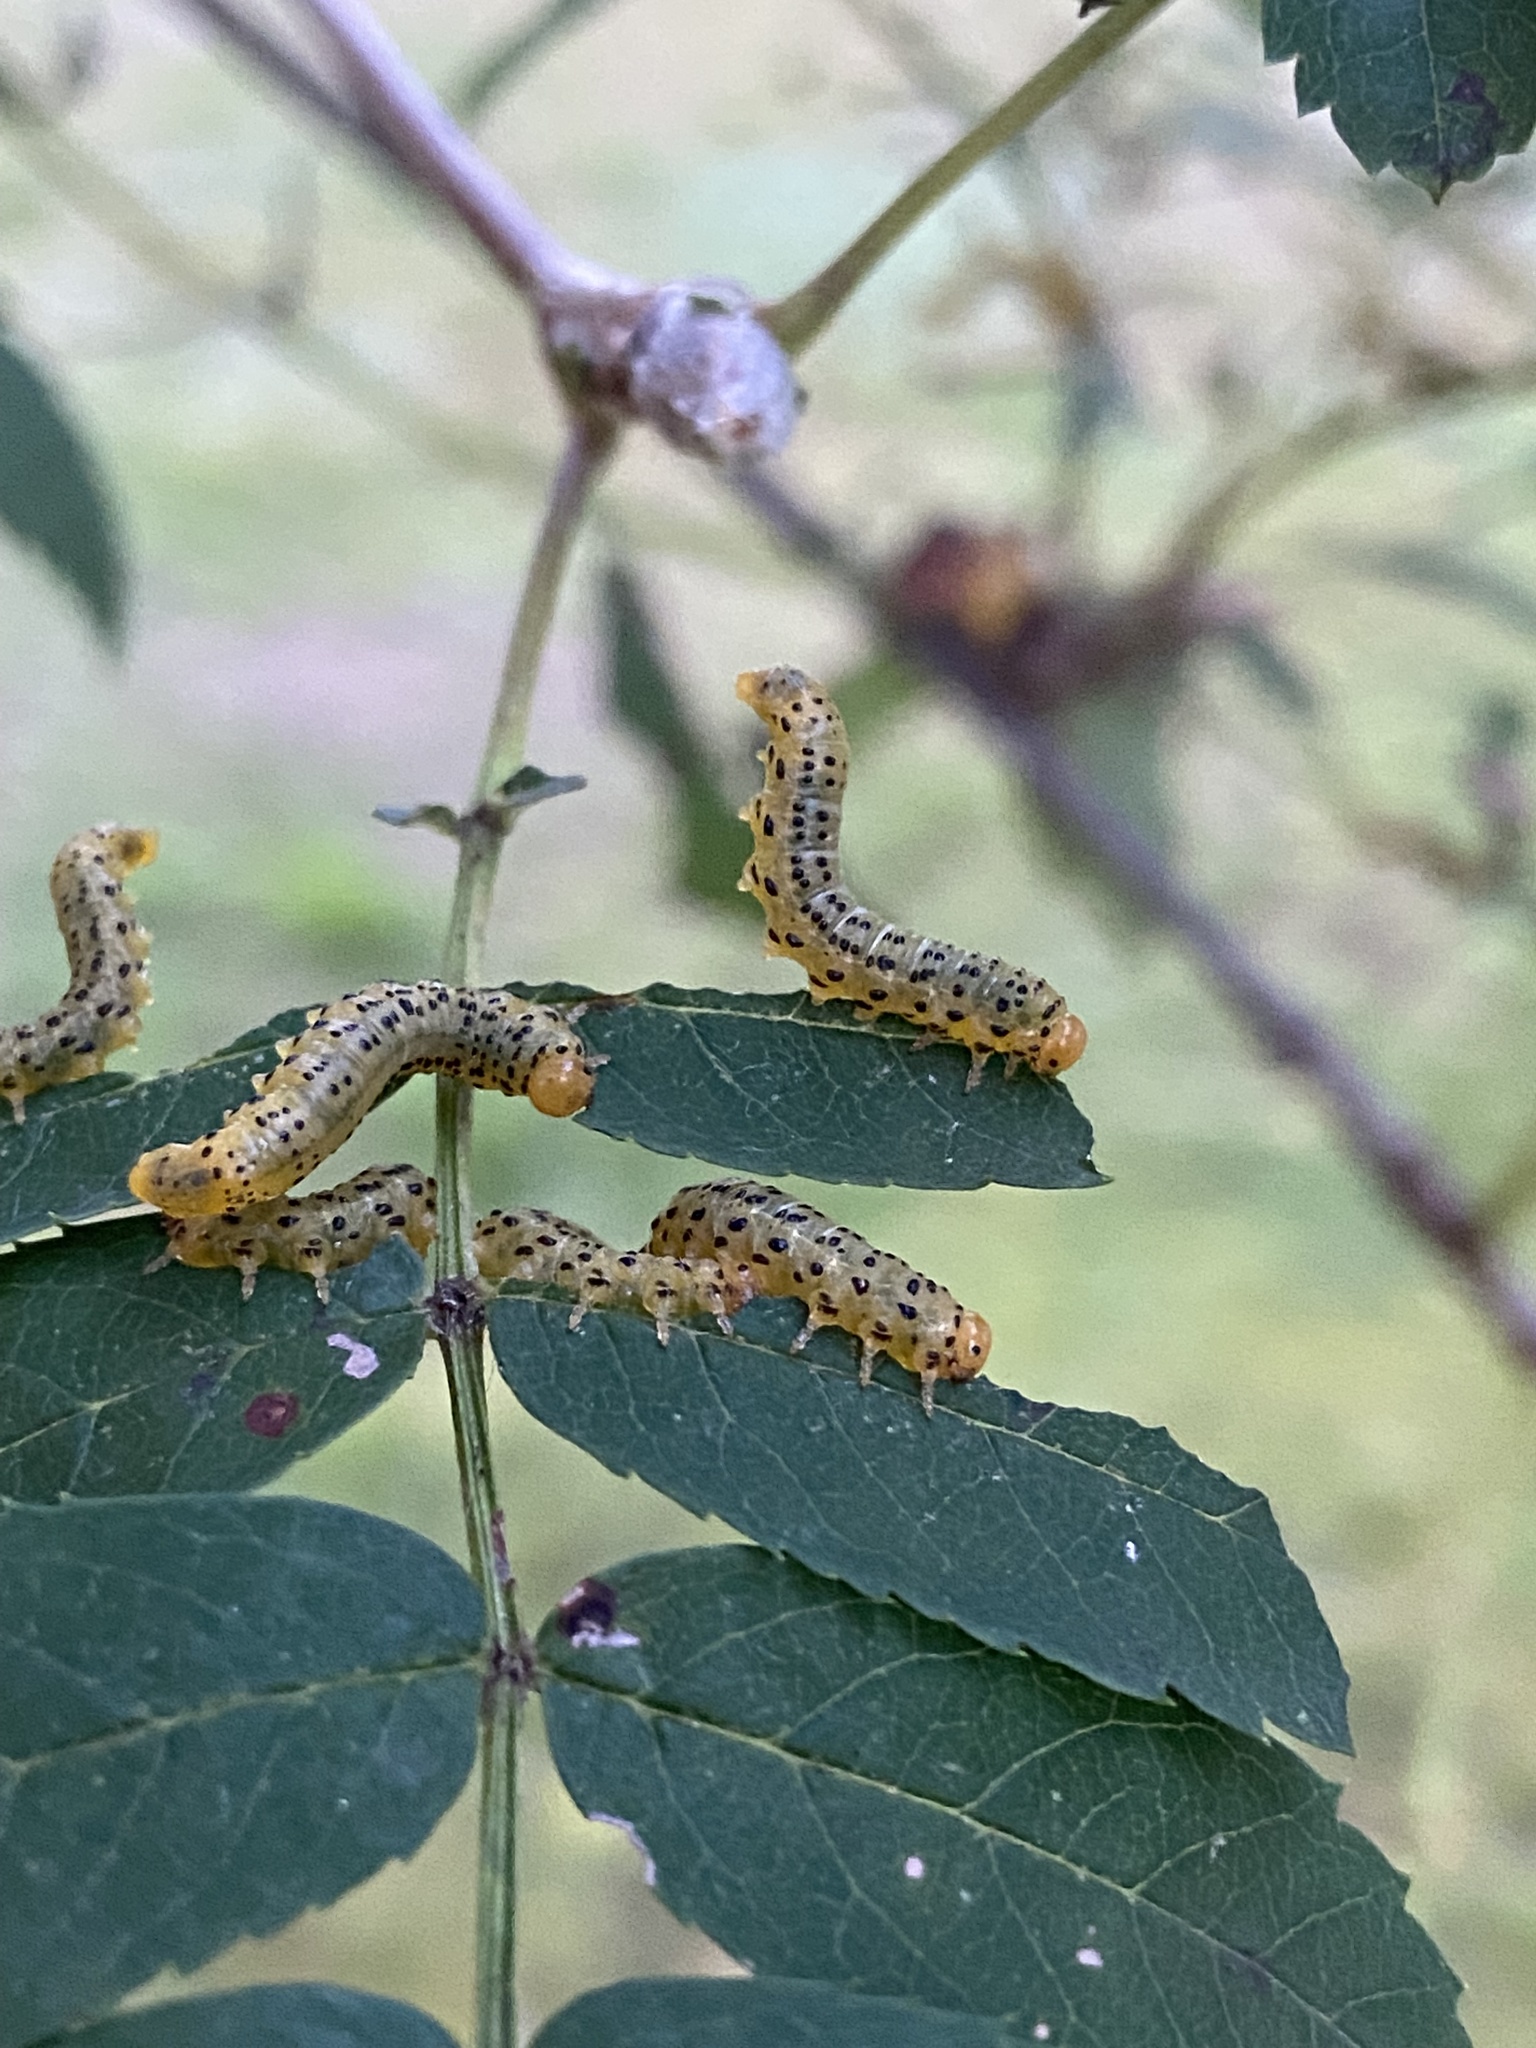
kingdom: Animalia
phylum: Arthropoda
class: Insecta
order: Hymenoptera
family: Argidae
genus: Arge
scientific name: Arge ochropus
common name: Argid sawfly
